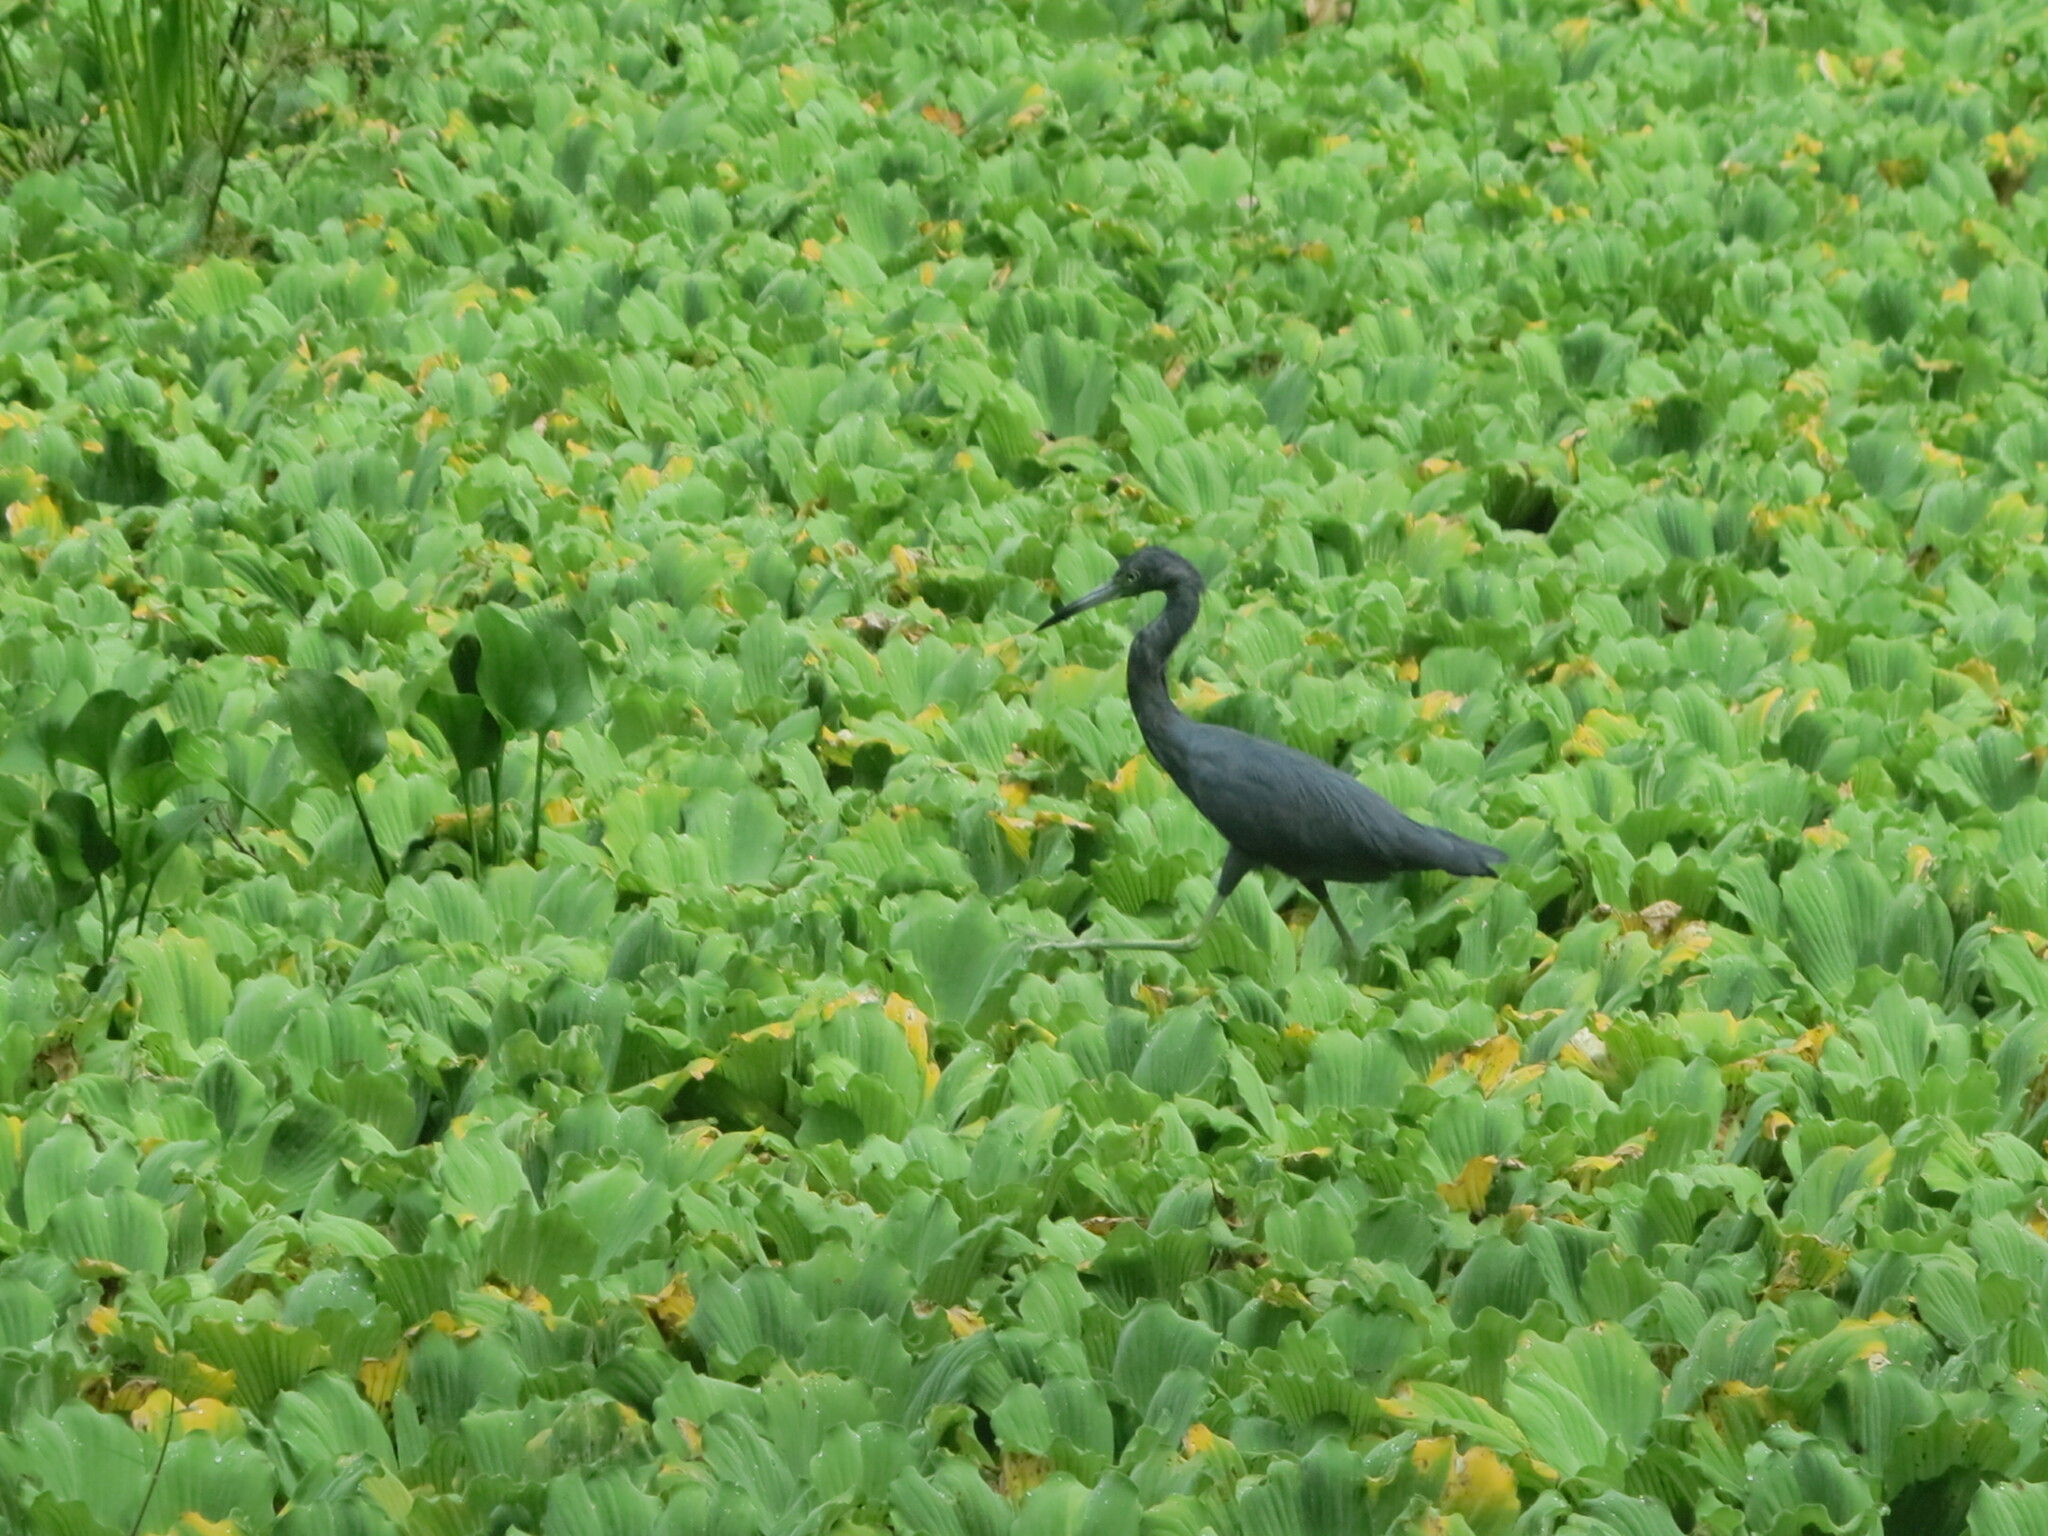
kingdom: Animalia
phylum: Chordata
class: Aves
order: Pelecaniformes
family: Ardeidae
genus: Egretta
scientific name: Egretta caerulea
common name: Little blue heron
